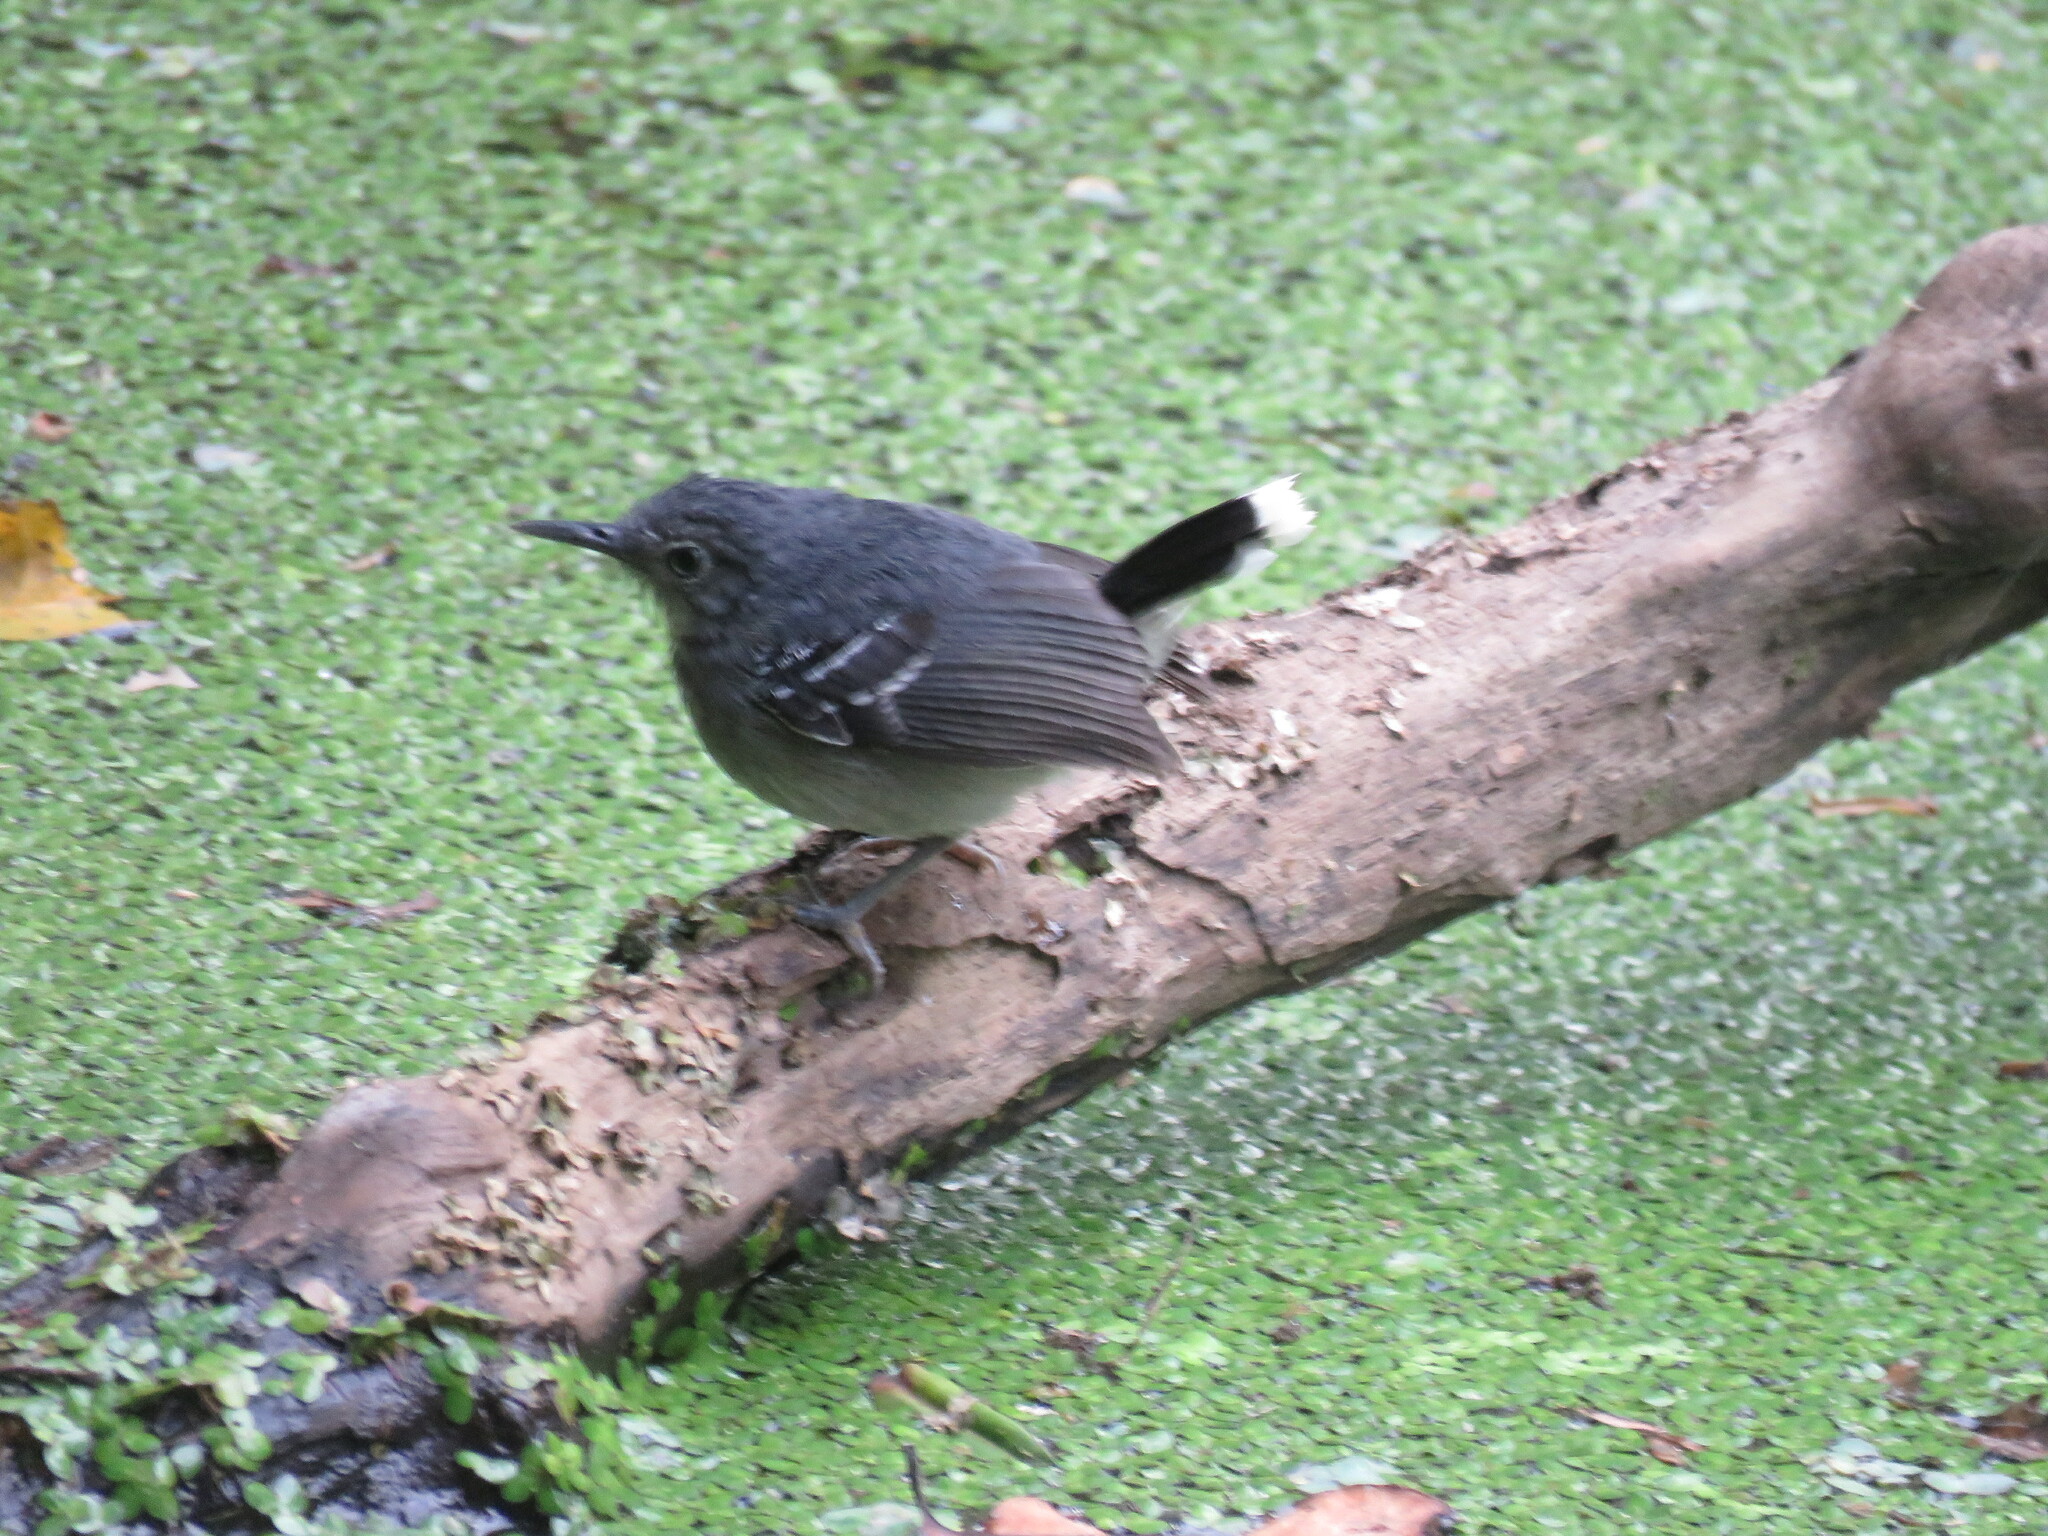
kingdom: Animalia
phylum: Chordata
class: Aves
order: Passeriformes
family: Thamnophilidae
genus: Hypocnemoides
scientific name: Hypocnemoides maculicauda
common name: Band-tailed antbird
